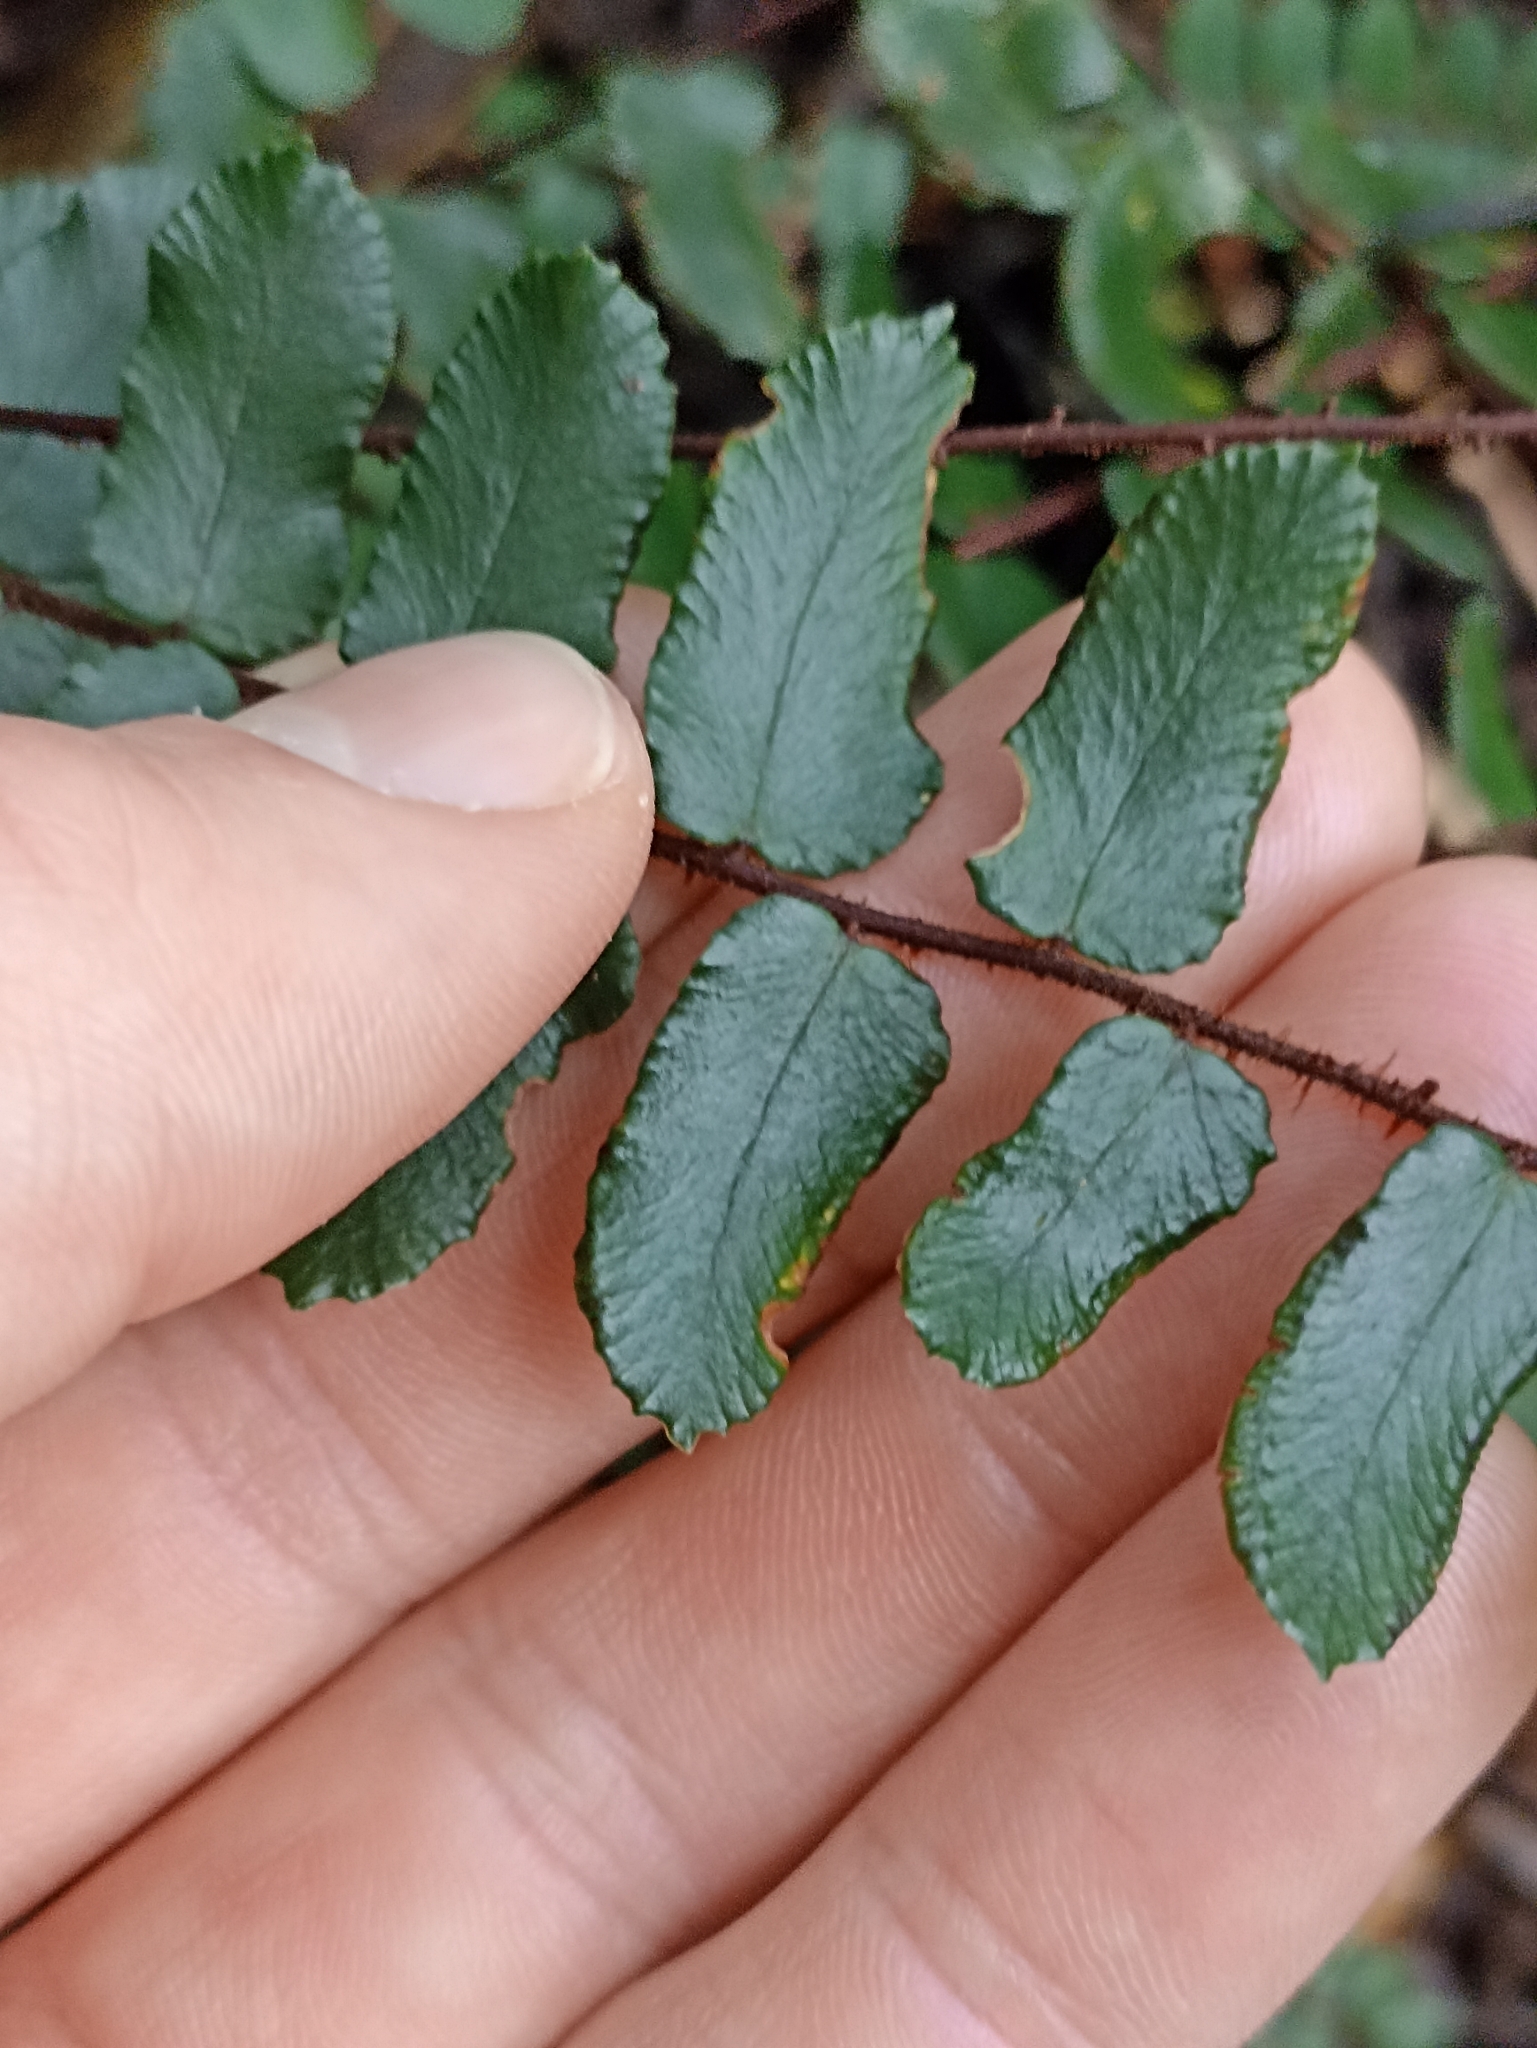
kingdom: Plantae
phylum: Tracheophyta
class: Polypodiopsida
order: Polypodiales
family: Pteridaceae
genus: Pellaea
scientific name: Pellaea rotundifolia
